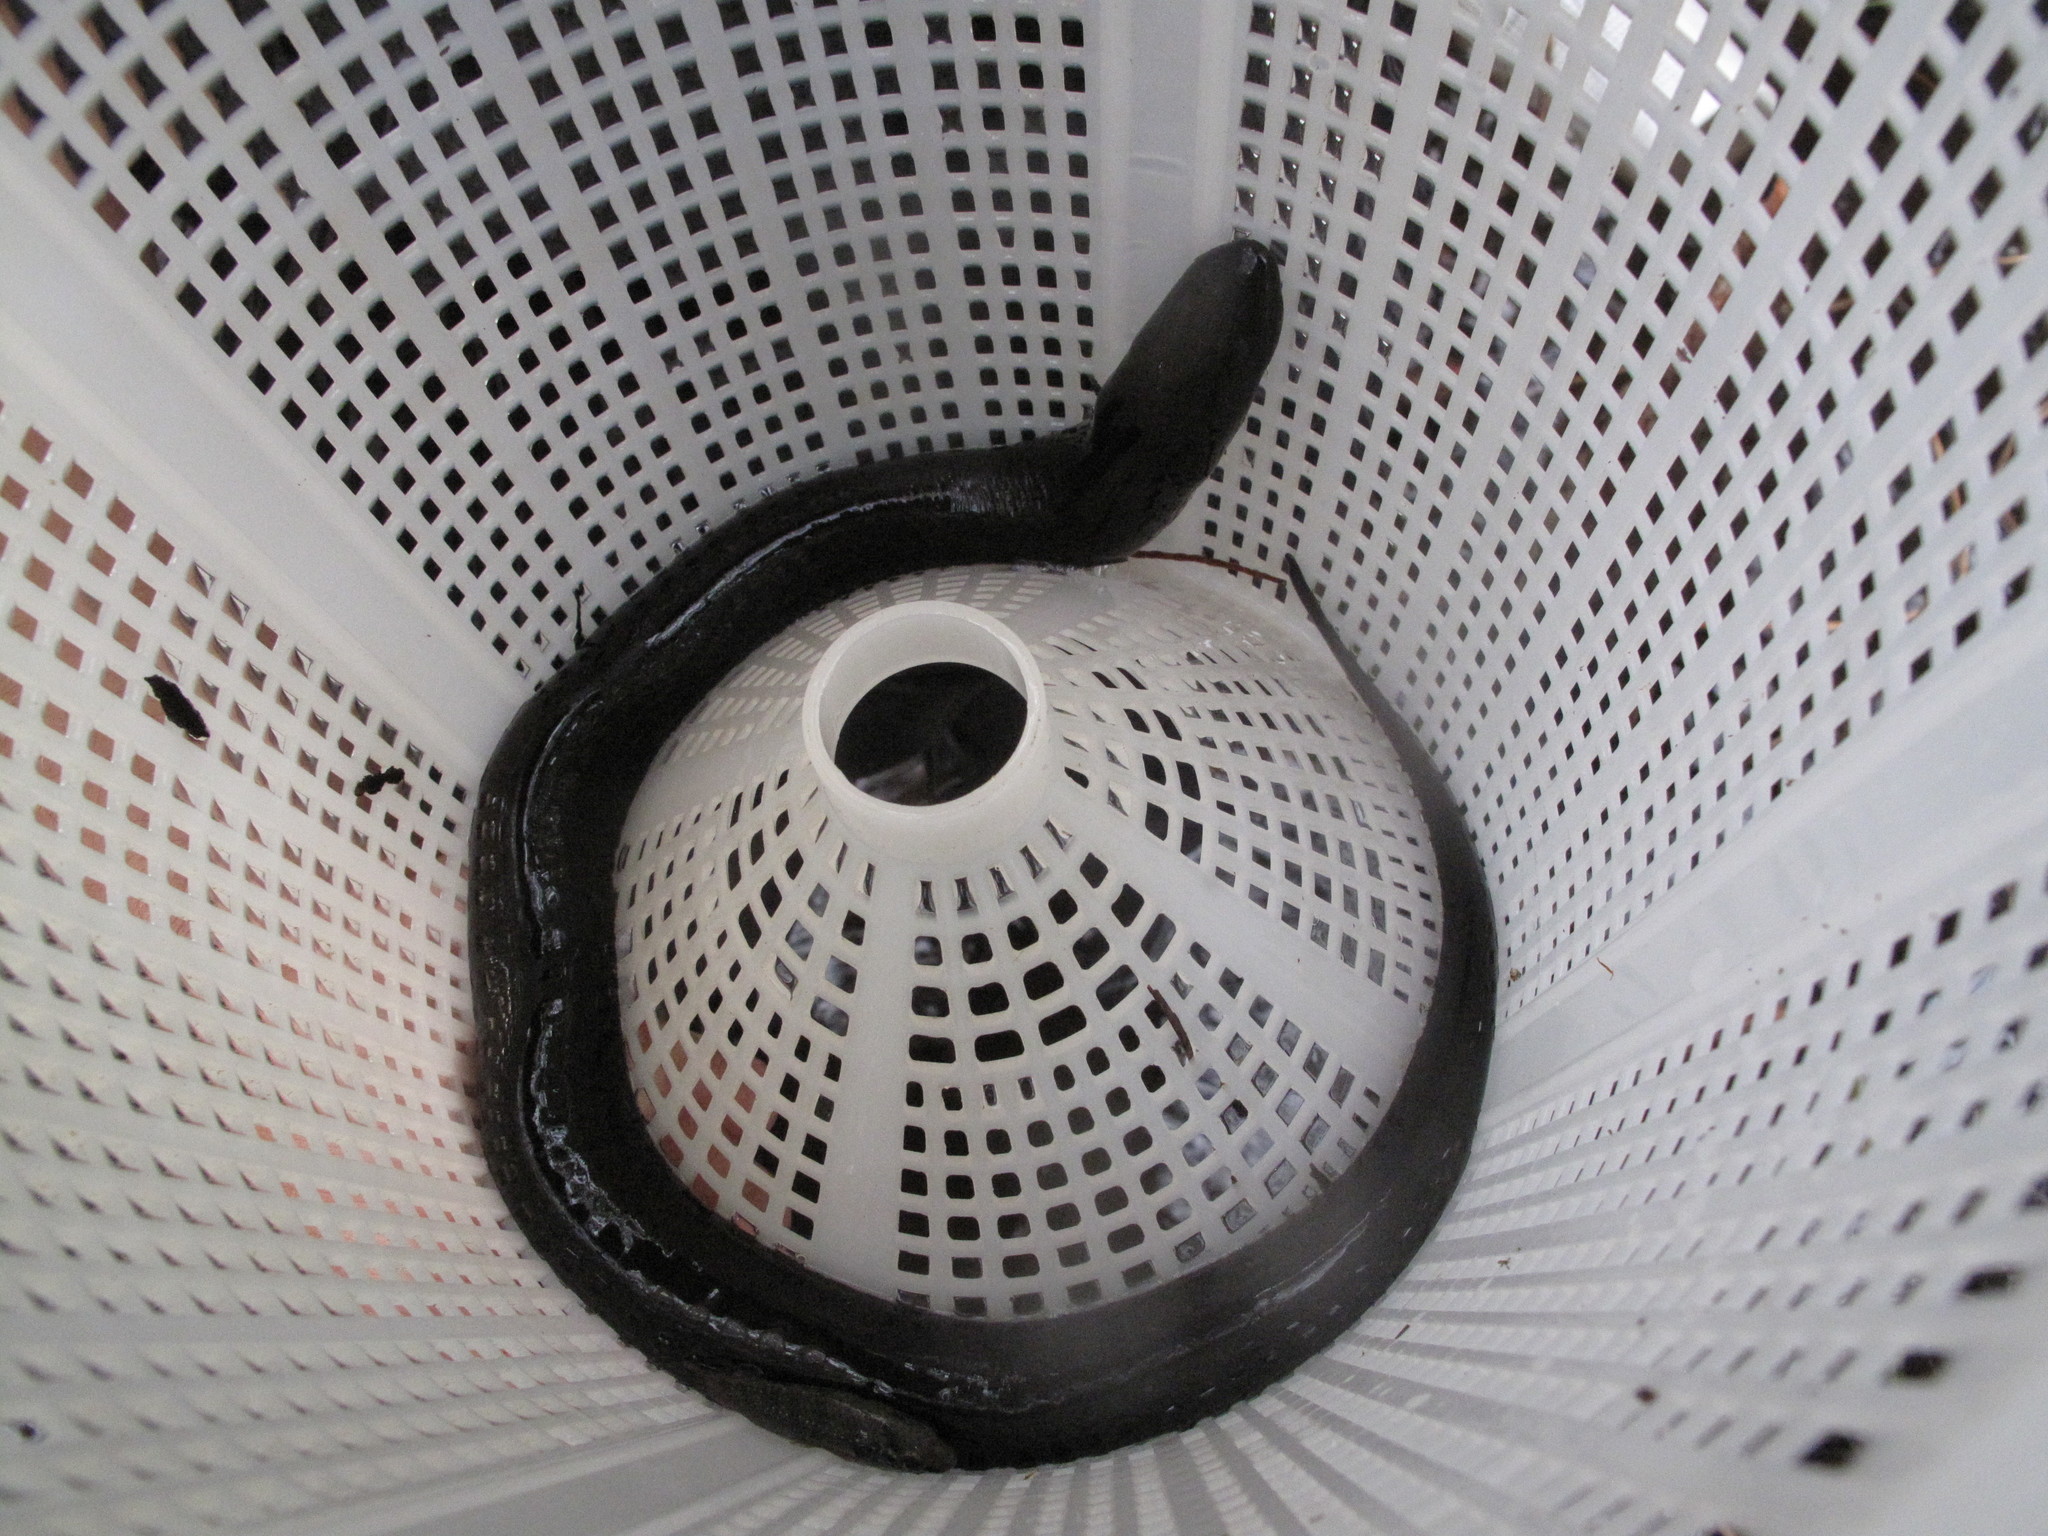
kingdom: Animalia
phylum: Chordata
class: Amphibia
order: Caudata
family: Amphiumidae
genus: Amphiuma
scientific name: Amphiuma means
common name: Two-toed amphiuma
